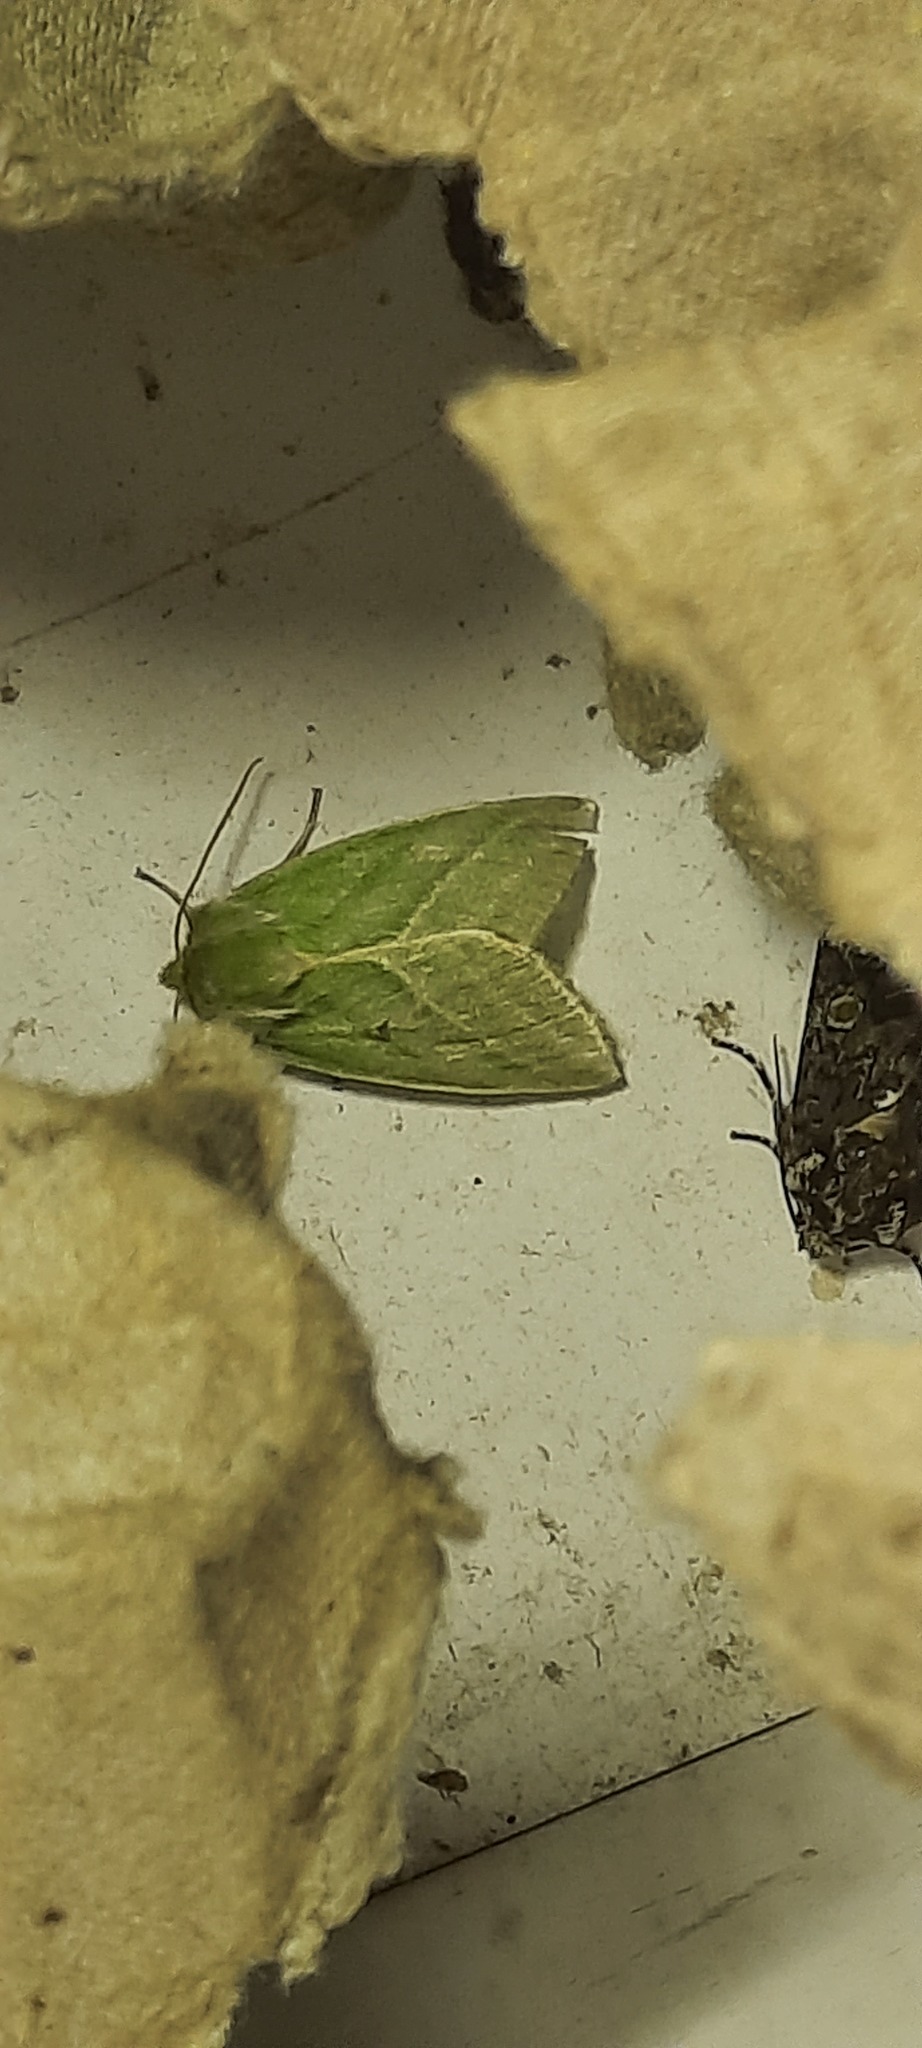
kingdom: Animalia
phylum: Arthropoda
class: Insecta
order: Lepidoptera
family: Nolidae
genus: Pseudoips
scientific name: Pseudoips prasinana
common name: Green silver-lines
